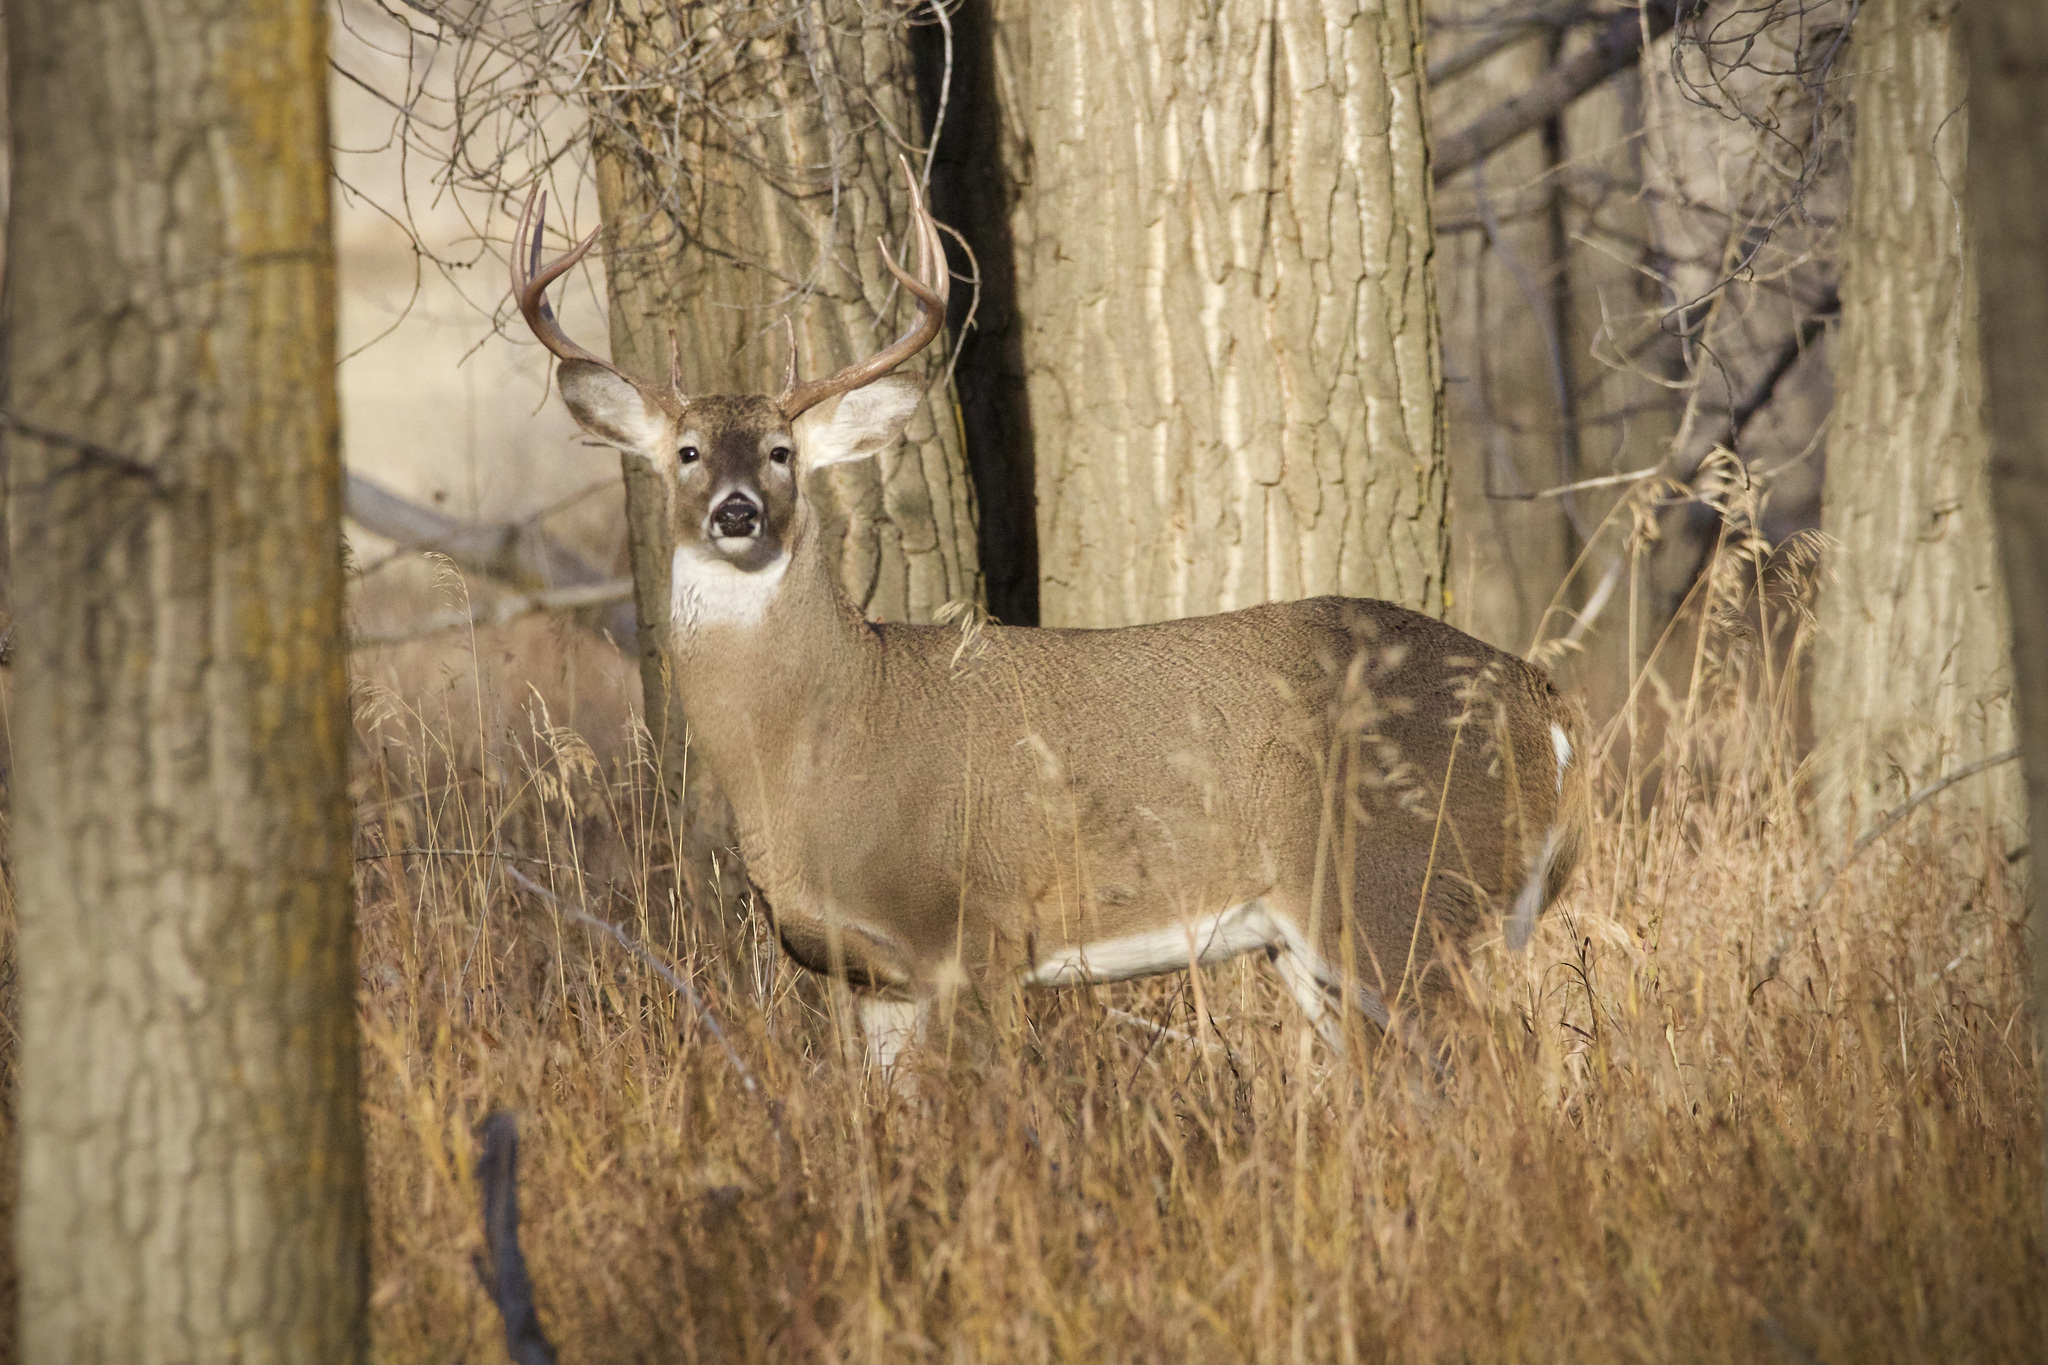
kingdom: Animalia
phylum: Chordata
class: Mammalia
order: Artiodactyla
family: Cervidae
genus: Odocoileus
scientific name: Odocoileus virginianus
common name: White-tailed deer
